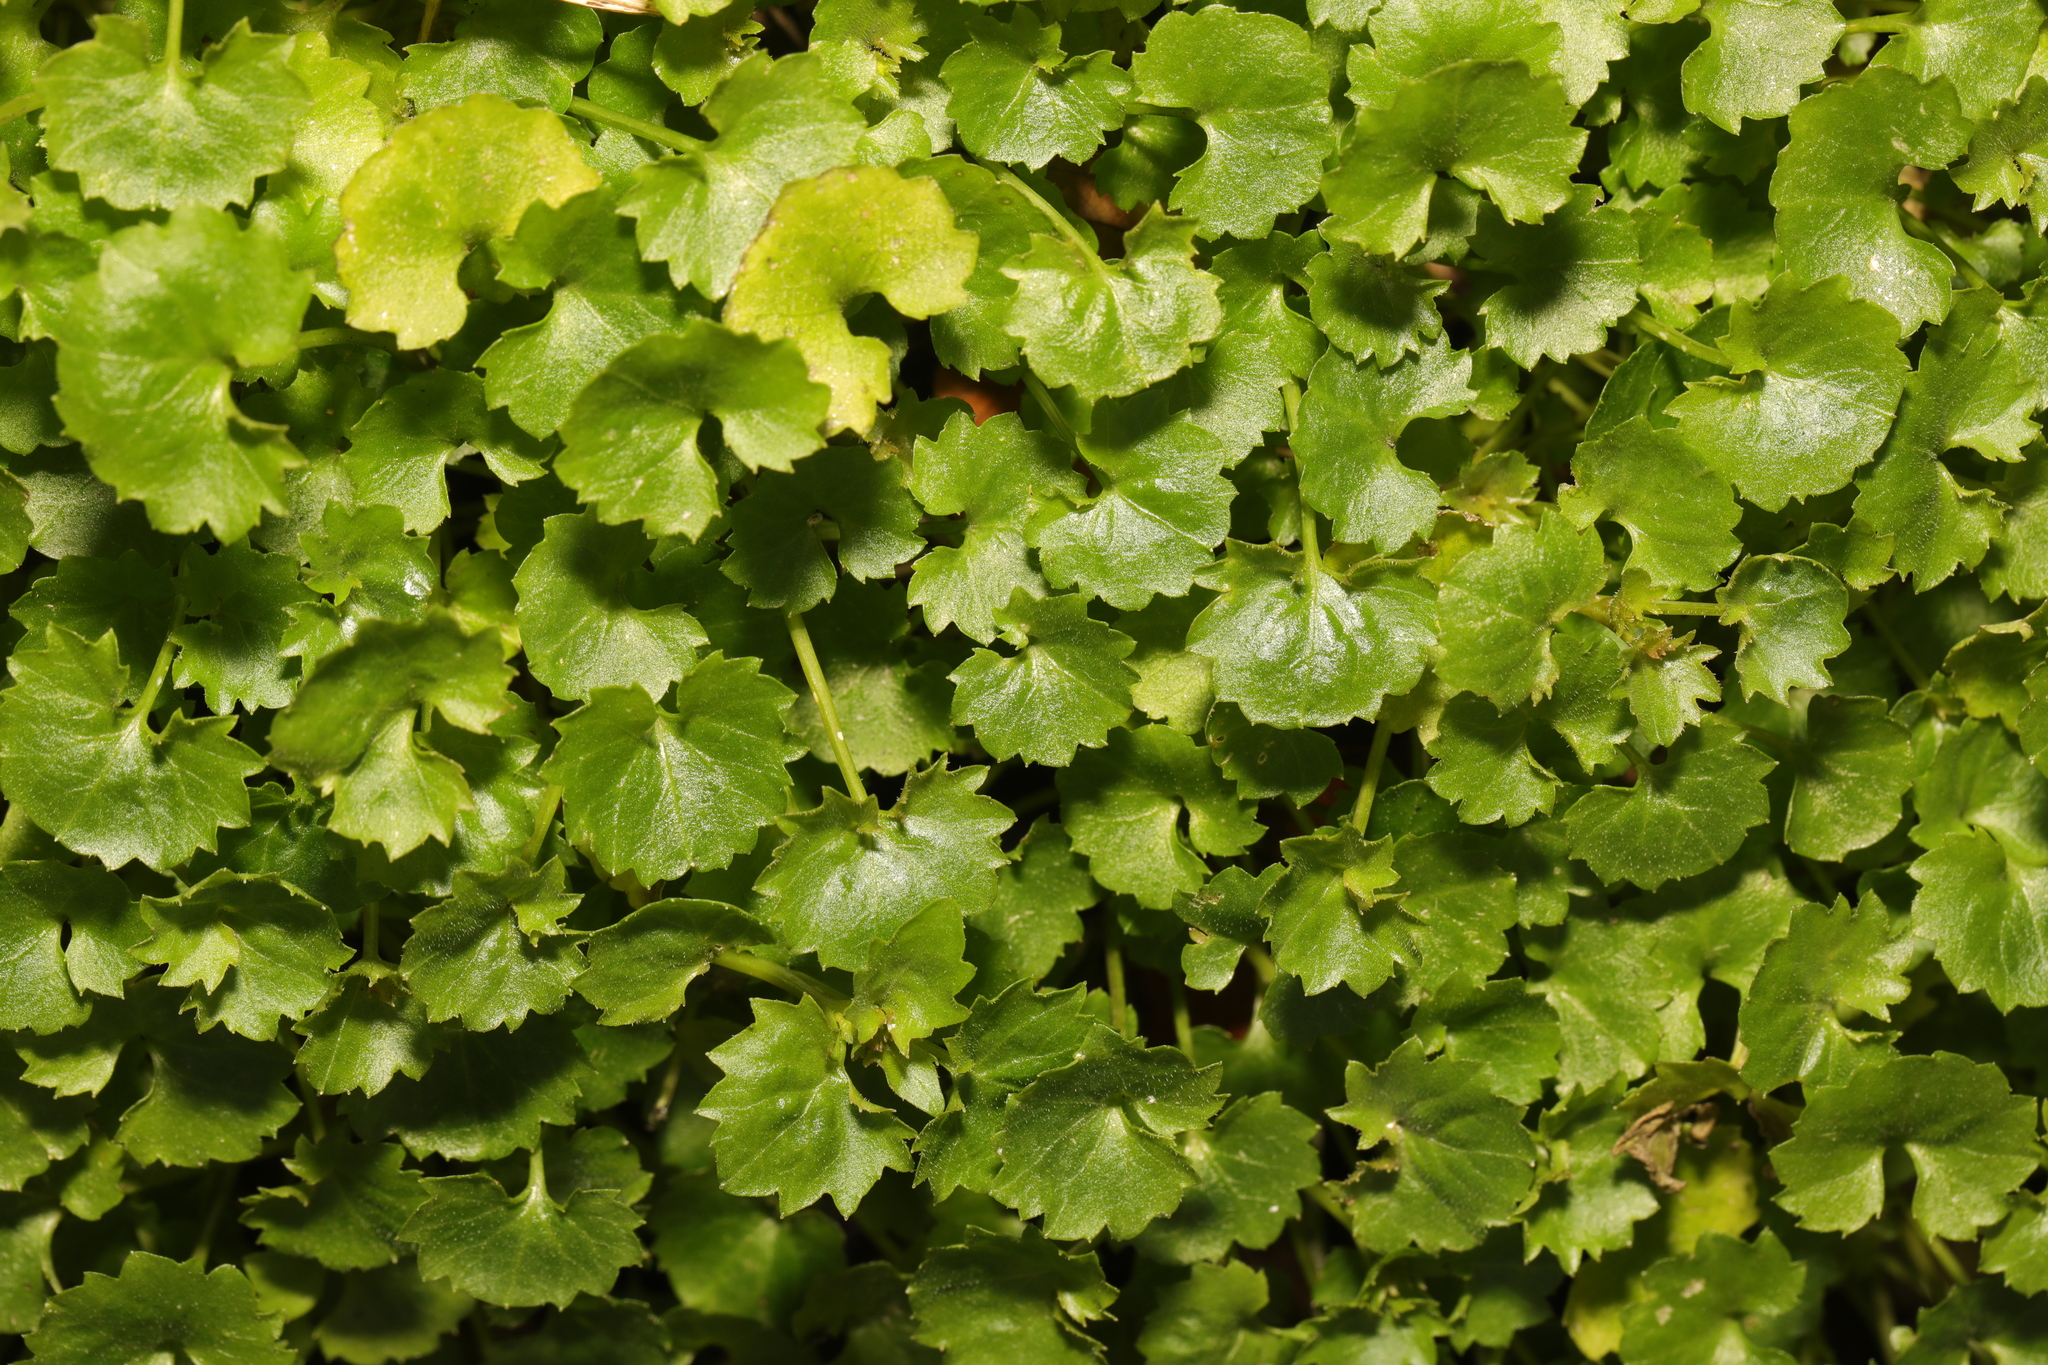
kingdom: Plantae
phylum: Tracheophyta
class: Magnoliopsida
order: Asterales
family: Campanulaceae
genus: Campanula
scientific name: Campanula portenschlagiana
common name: Adria bellflower
